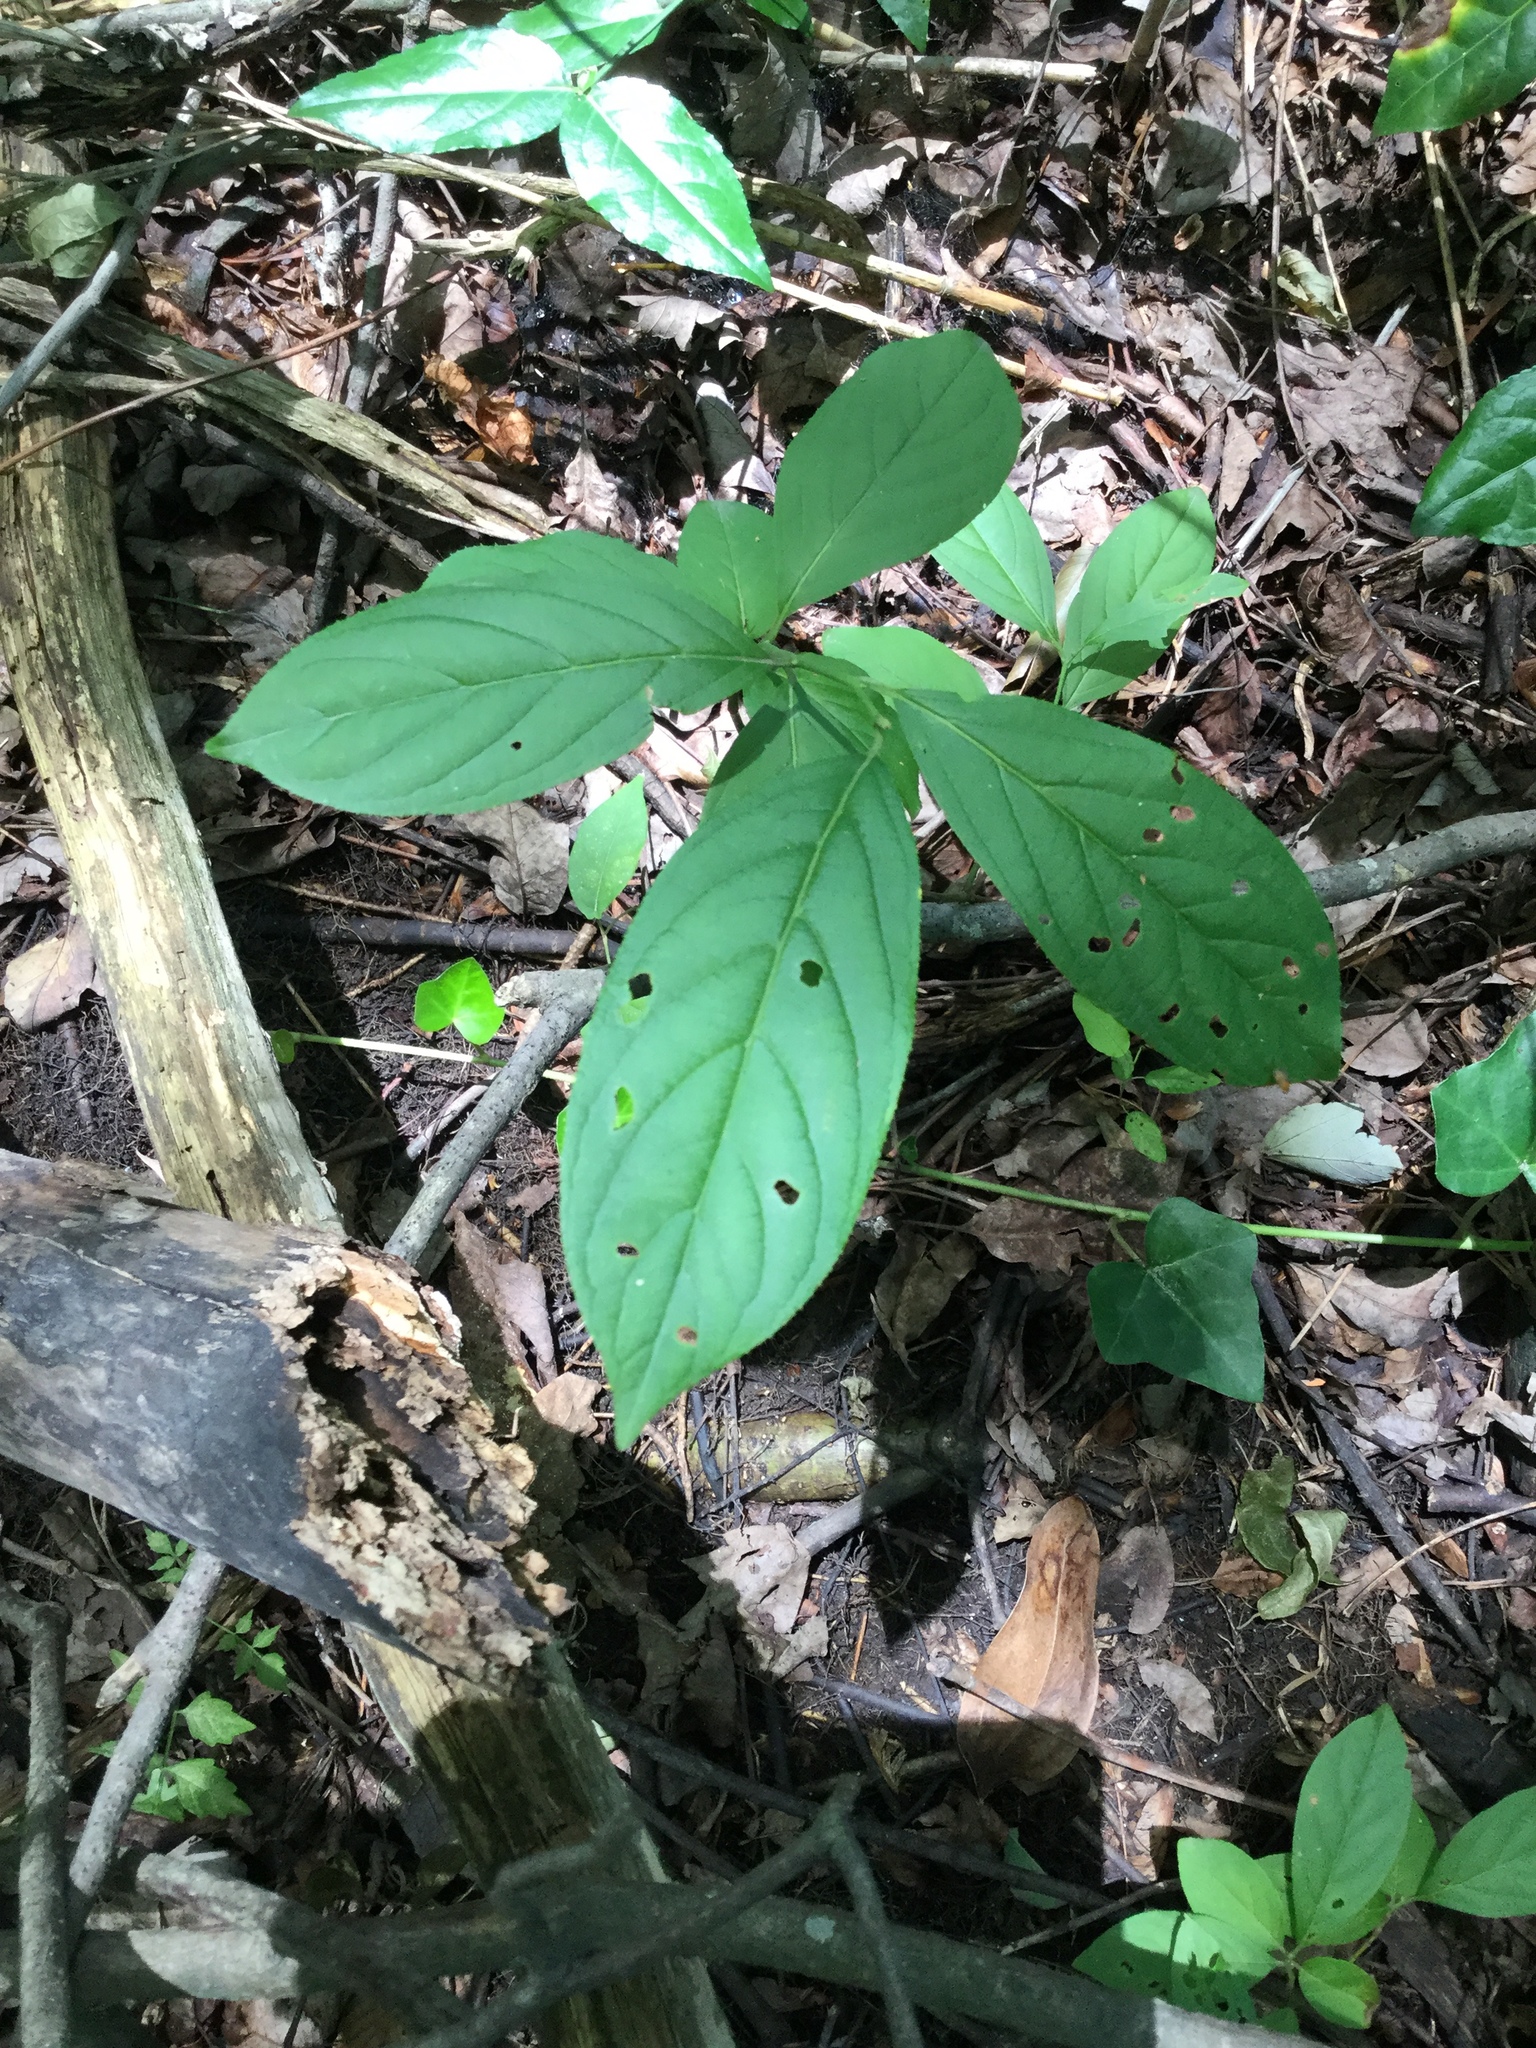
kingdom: Plantae
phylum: Tracheophyta
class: Magnoliopsida
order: Saxifragales
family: Iteaceae
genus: Itea
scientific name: Itea virginica
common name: Sweetspire
